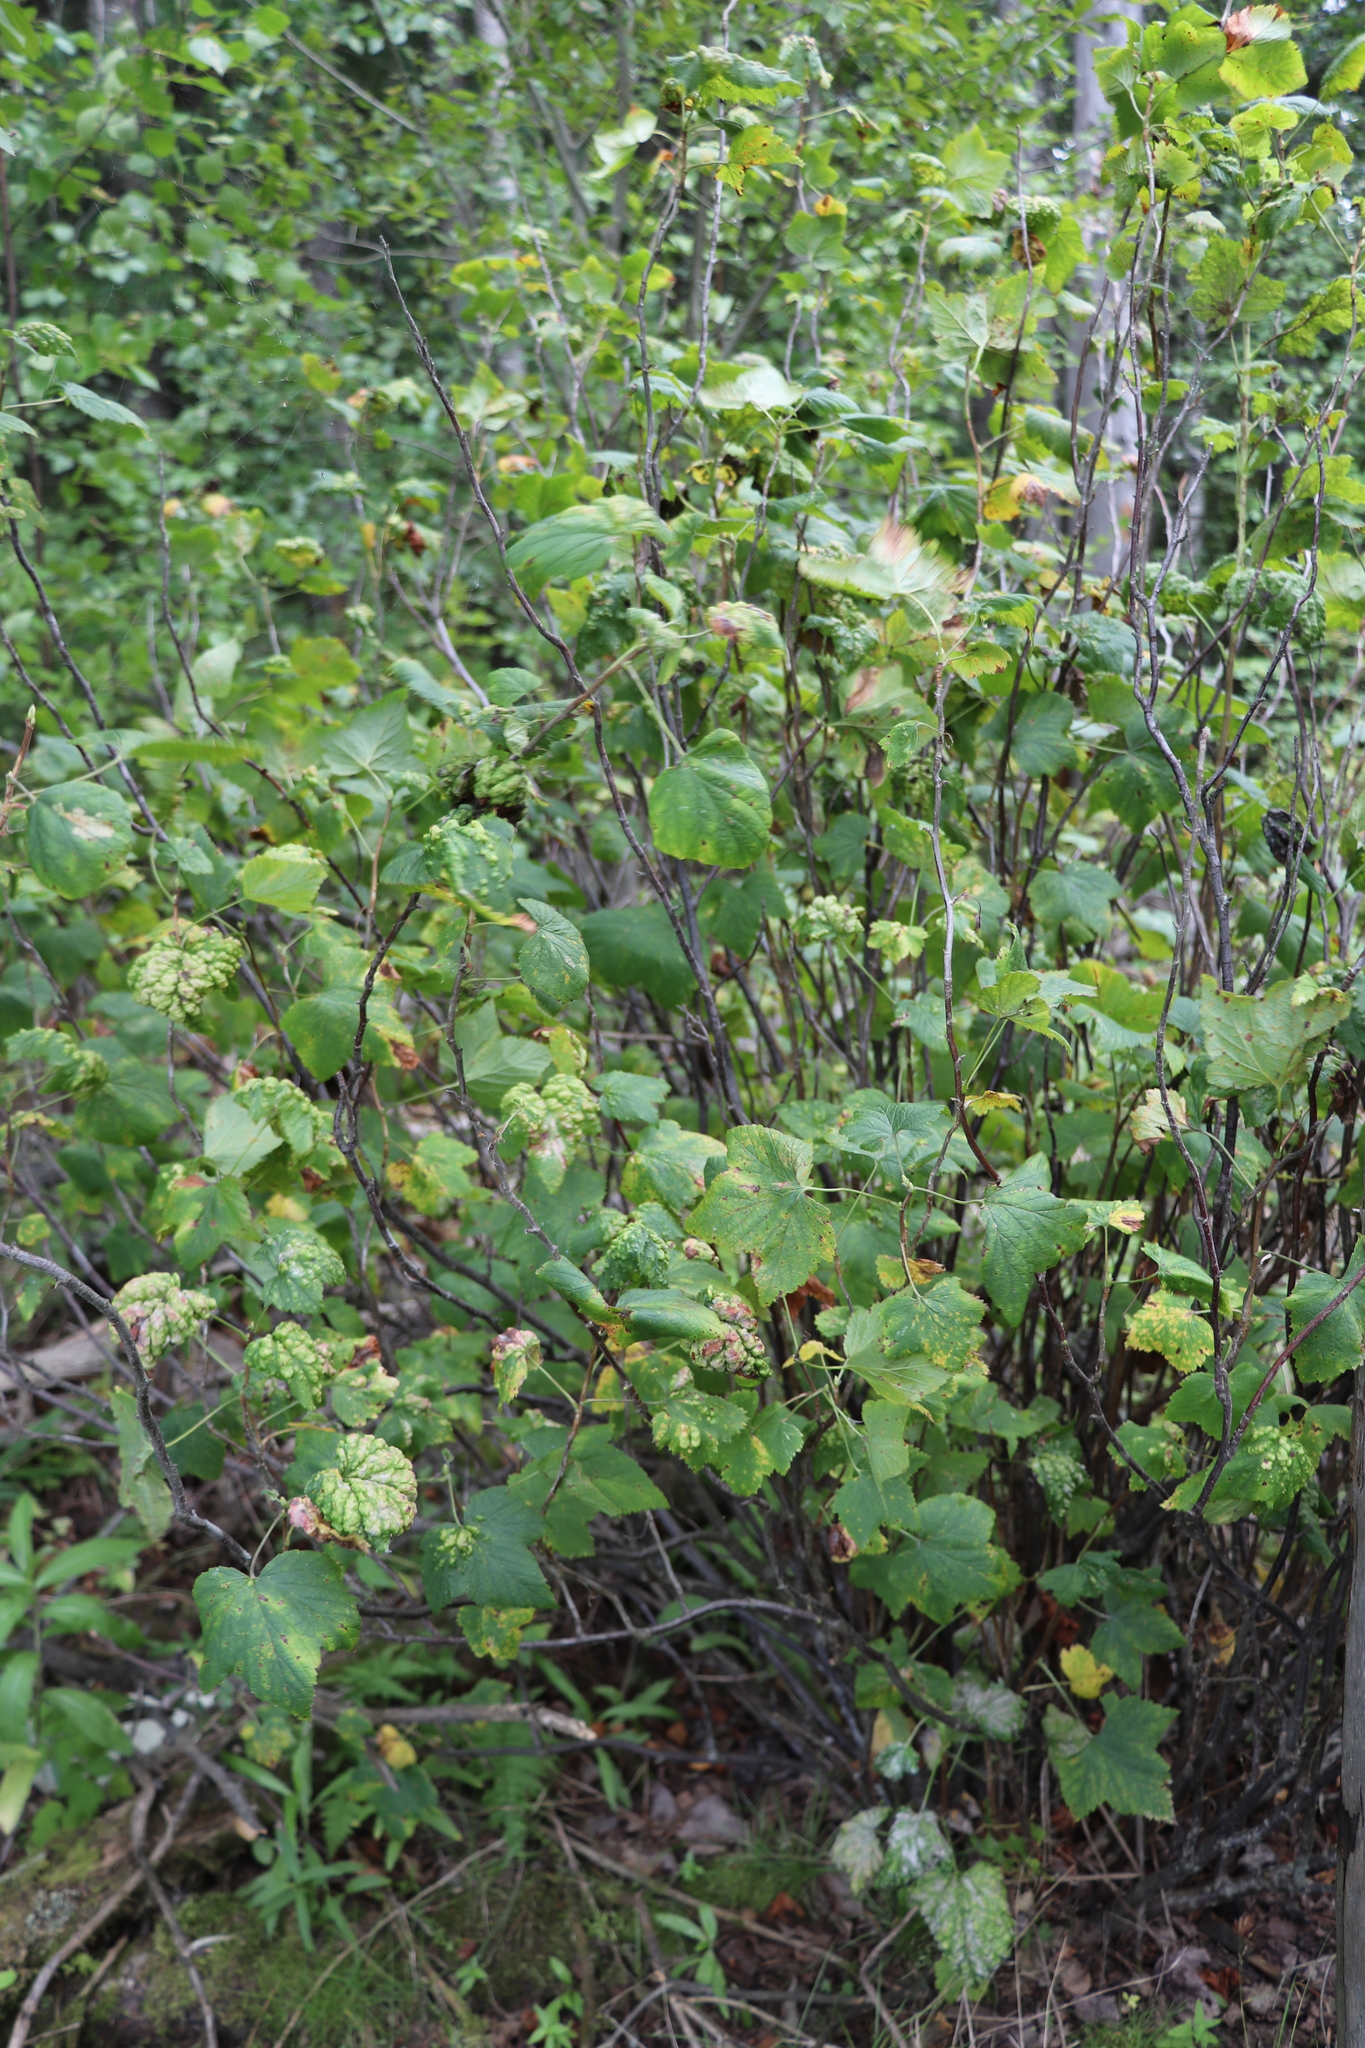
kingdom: Plantae
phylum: Tracheophyta
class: Magnoliopsida
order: Saxifragales
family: Grossulariaceae
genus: Ribes
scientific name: Ribes nigrum
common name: Black currant
